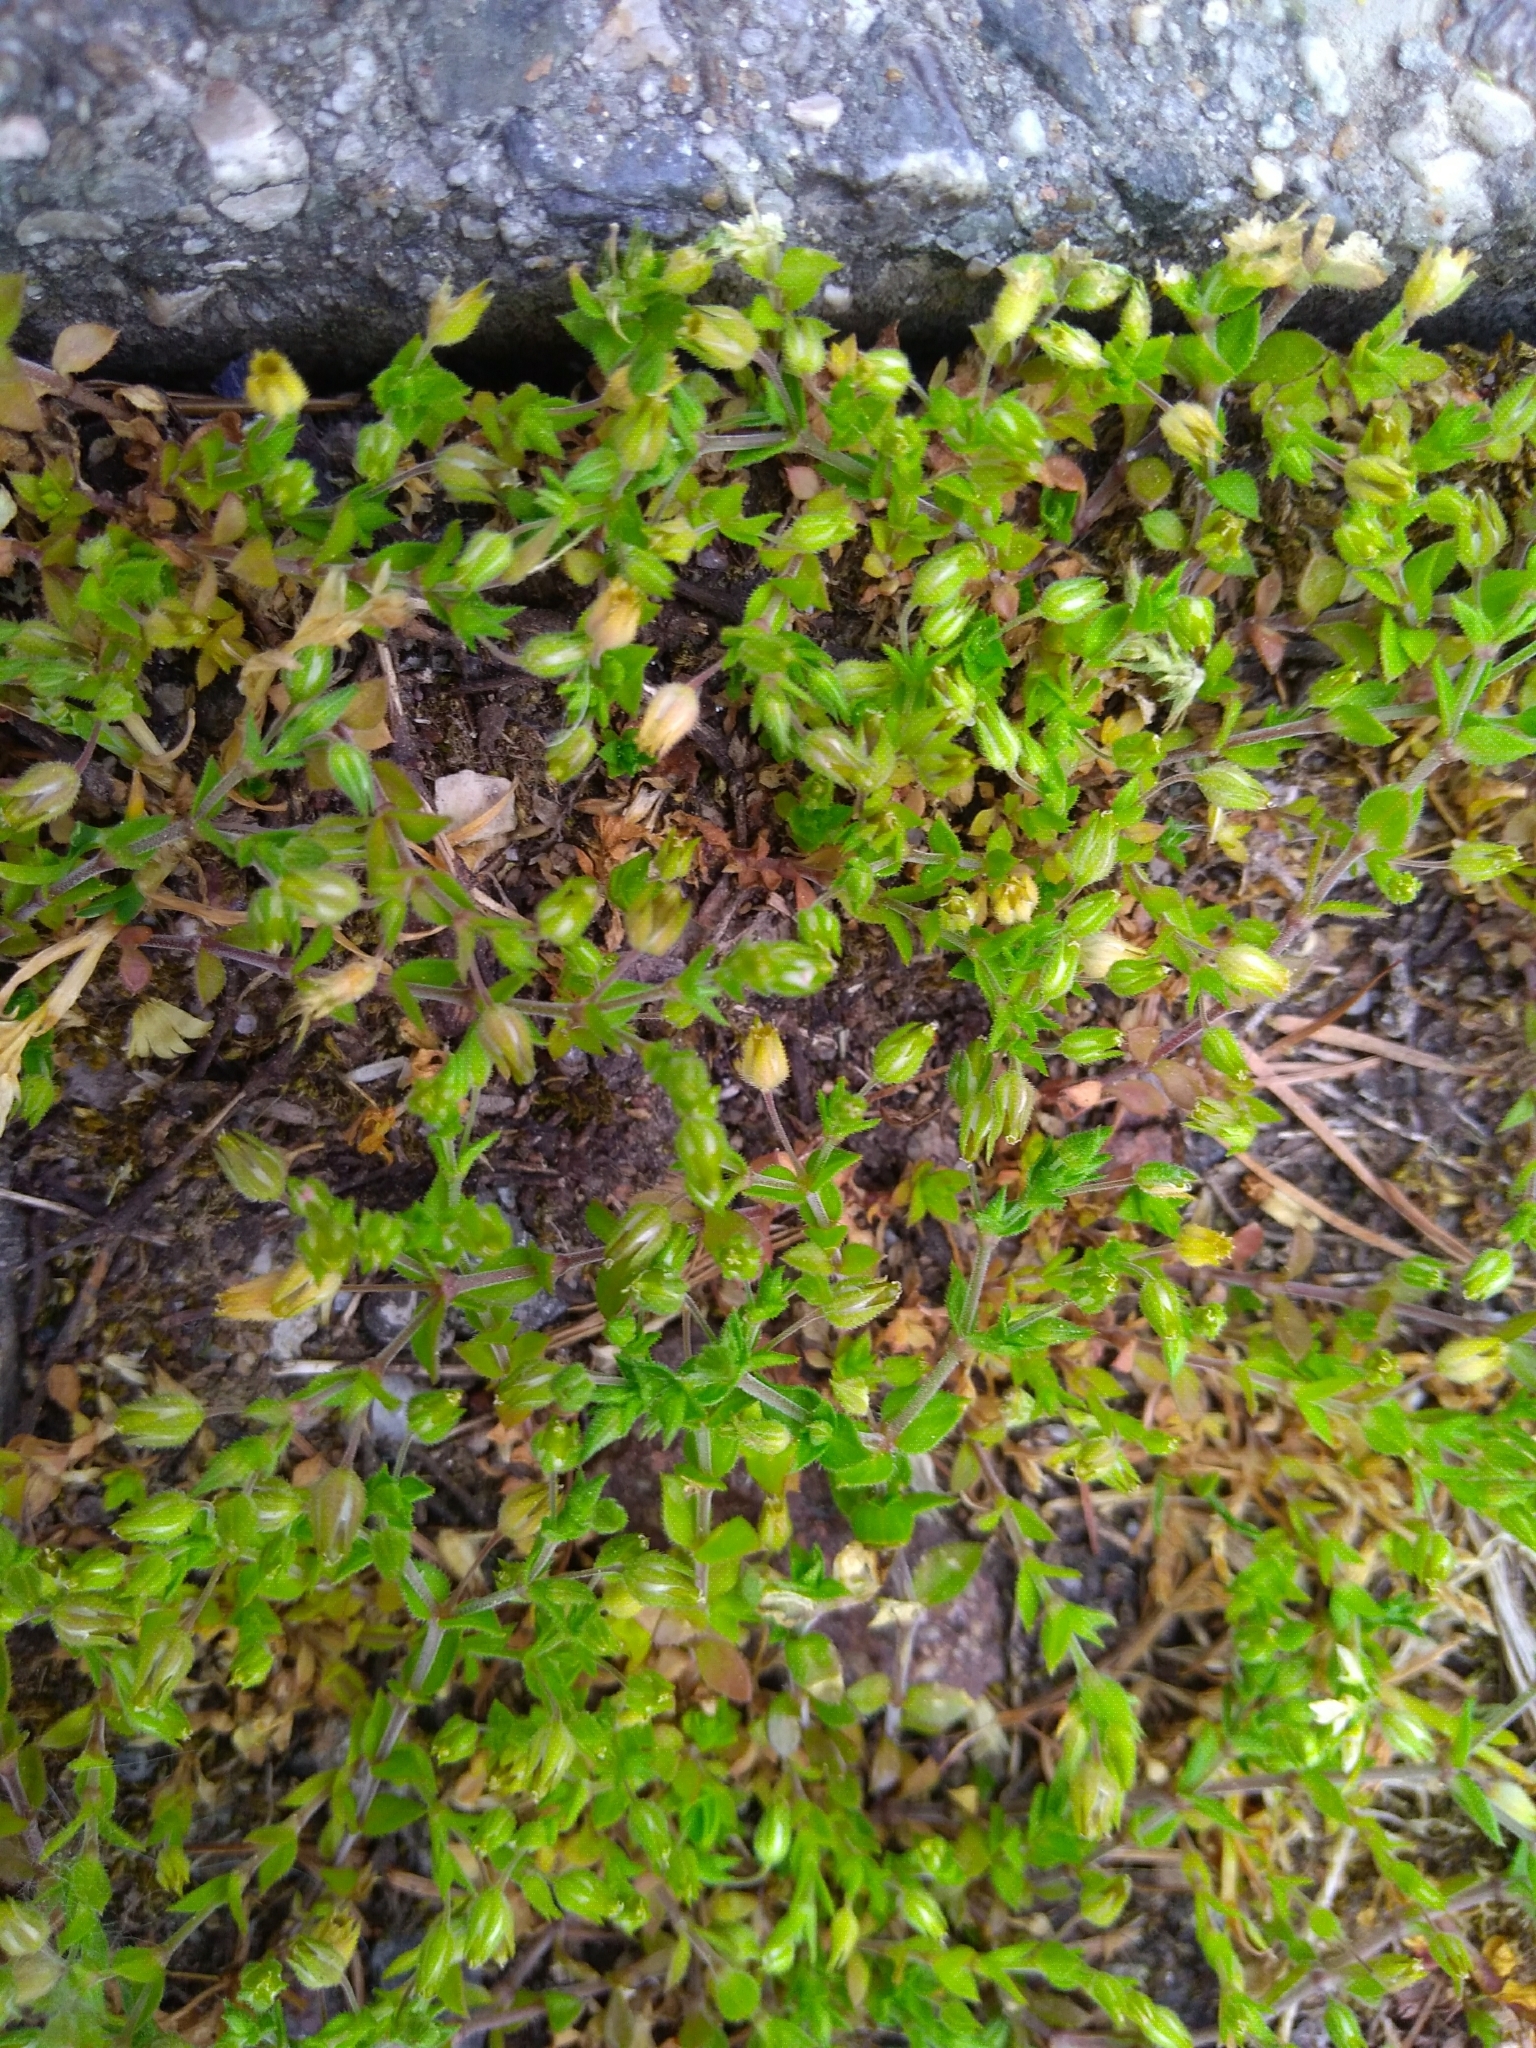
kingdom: Plantae
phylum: Tracheophyta
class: Magnoliopsida
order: Caryophyllales
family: Caryophyllaceae
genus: Arenaria
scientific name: Arenaria serpyllifolia
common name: Thyme-leaved sandwort
